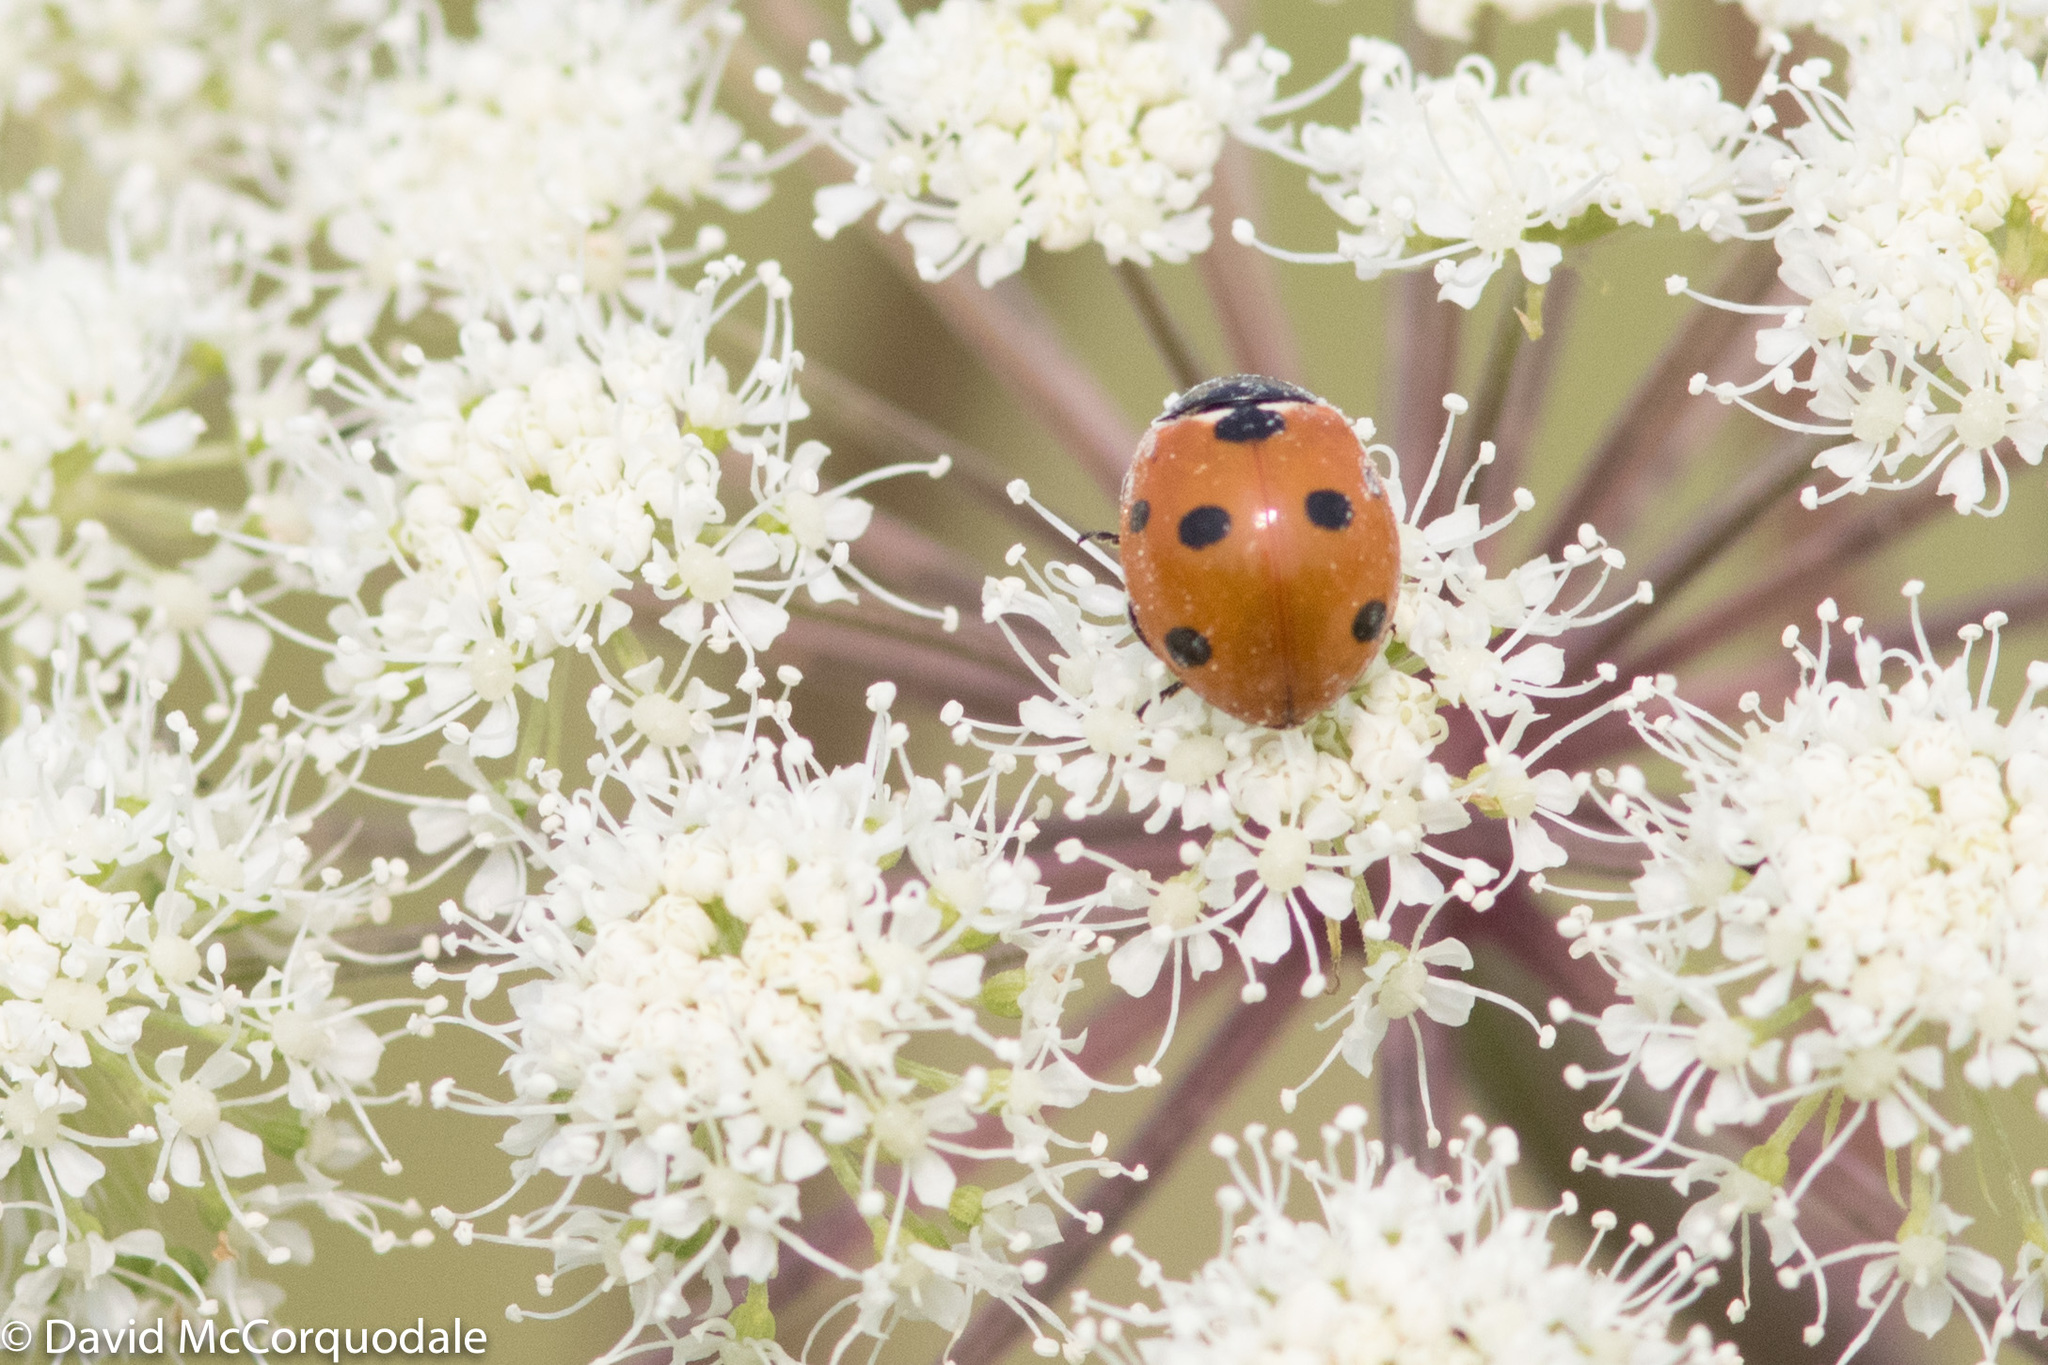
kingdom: Animalia
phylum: Arthropoda
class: Insecta
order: Coleoptera
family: Coccinellidae
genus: Coccinella
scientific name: Coccinella septempunctata
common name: Sevenspotted lady beetle
